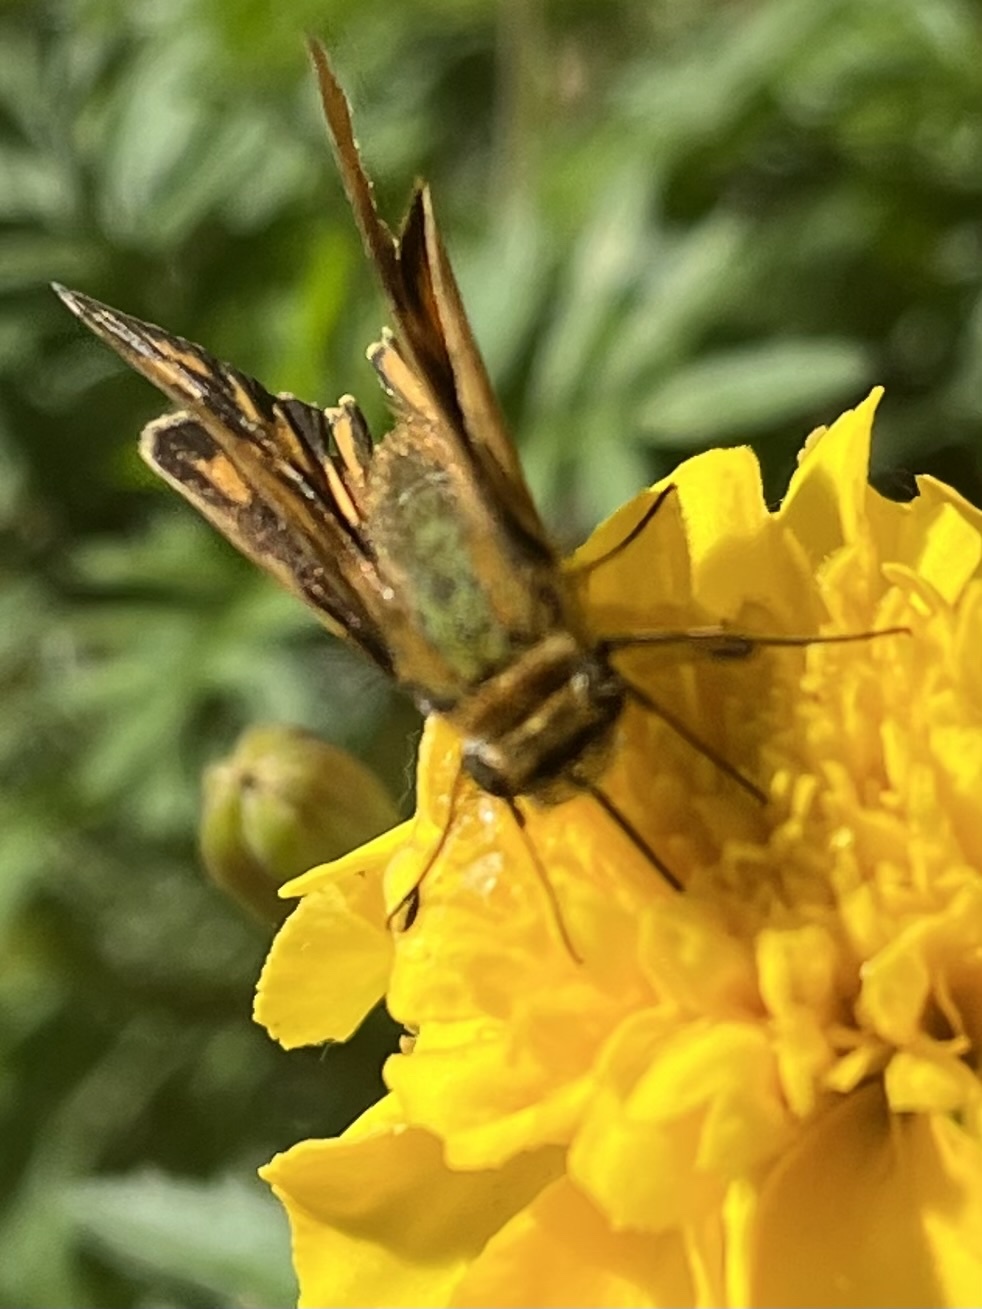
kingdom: Animalia
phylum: Arthropoda
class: Insecta
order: Lepidoptera
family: Hesperiidae
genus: Hylephila
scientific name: Hylephila phyleus
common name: Fiery skipper
